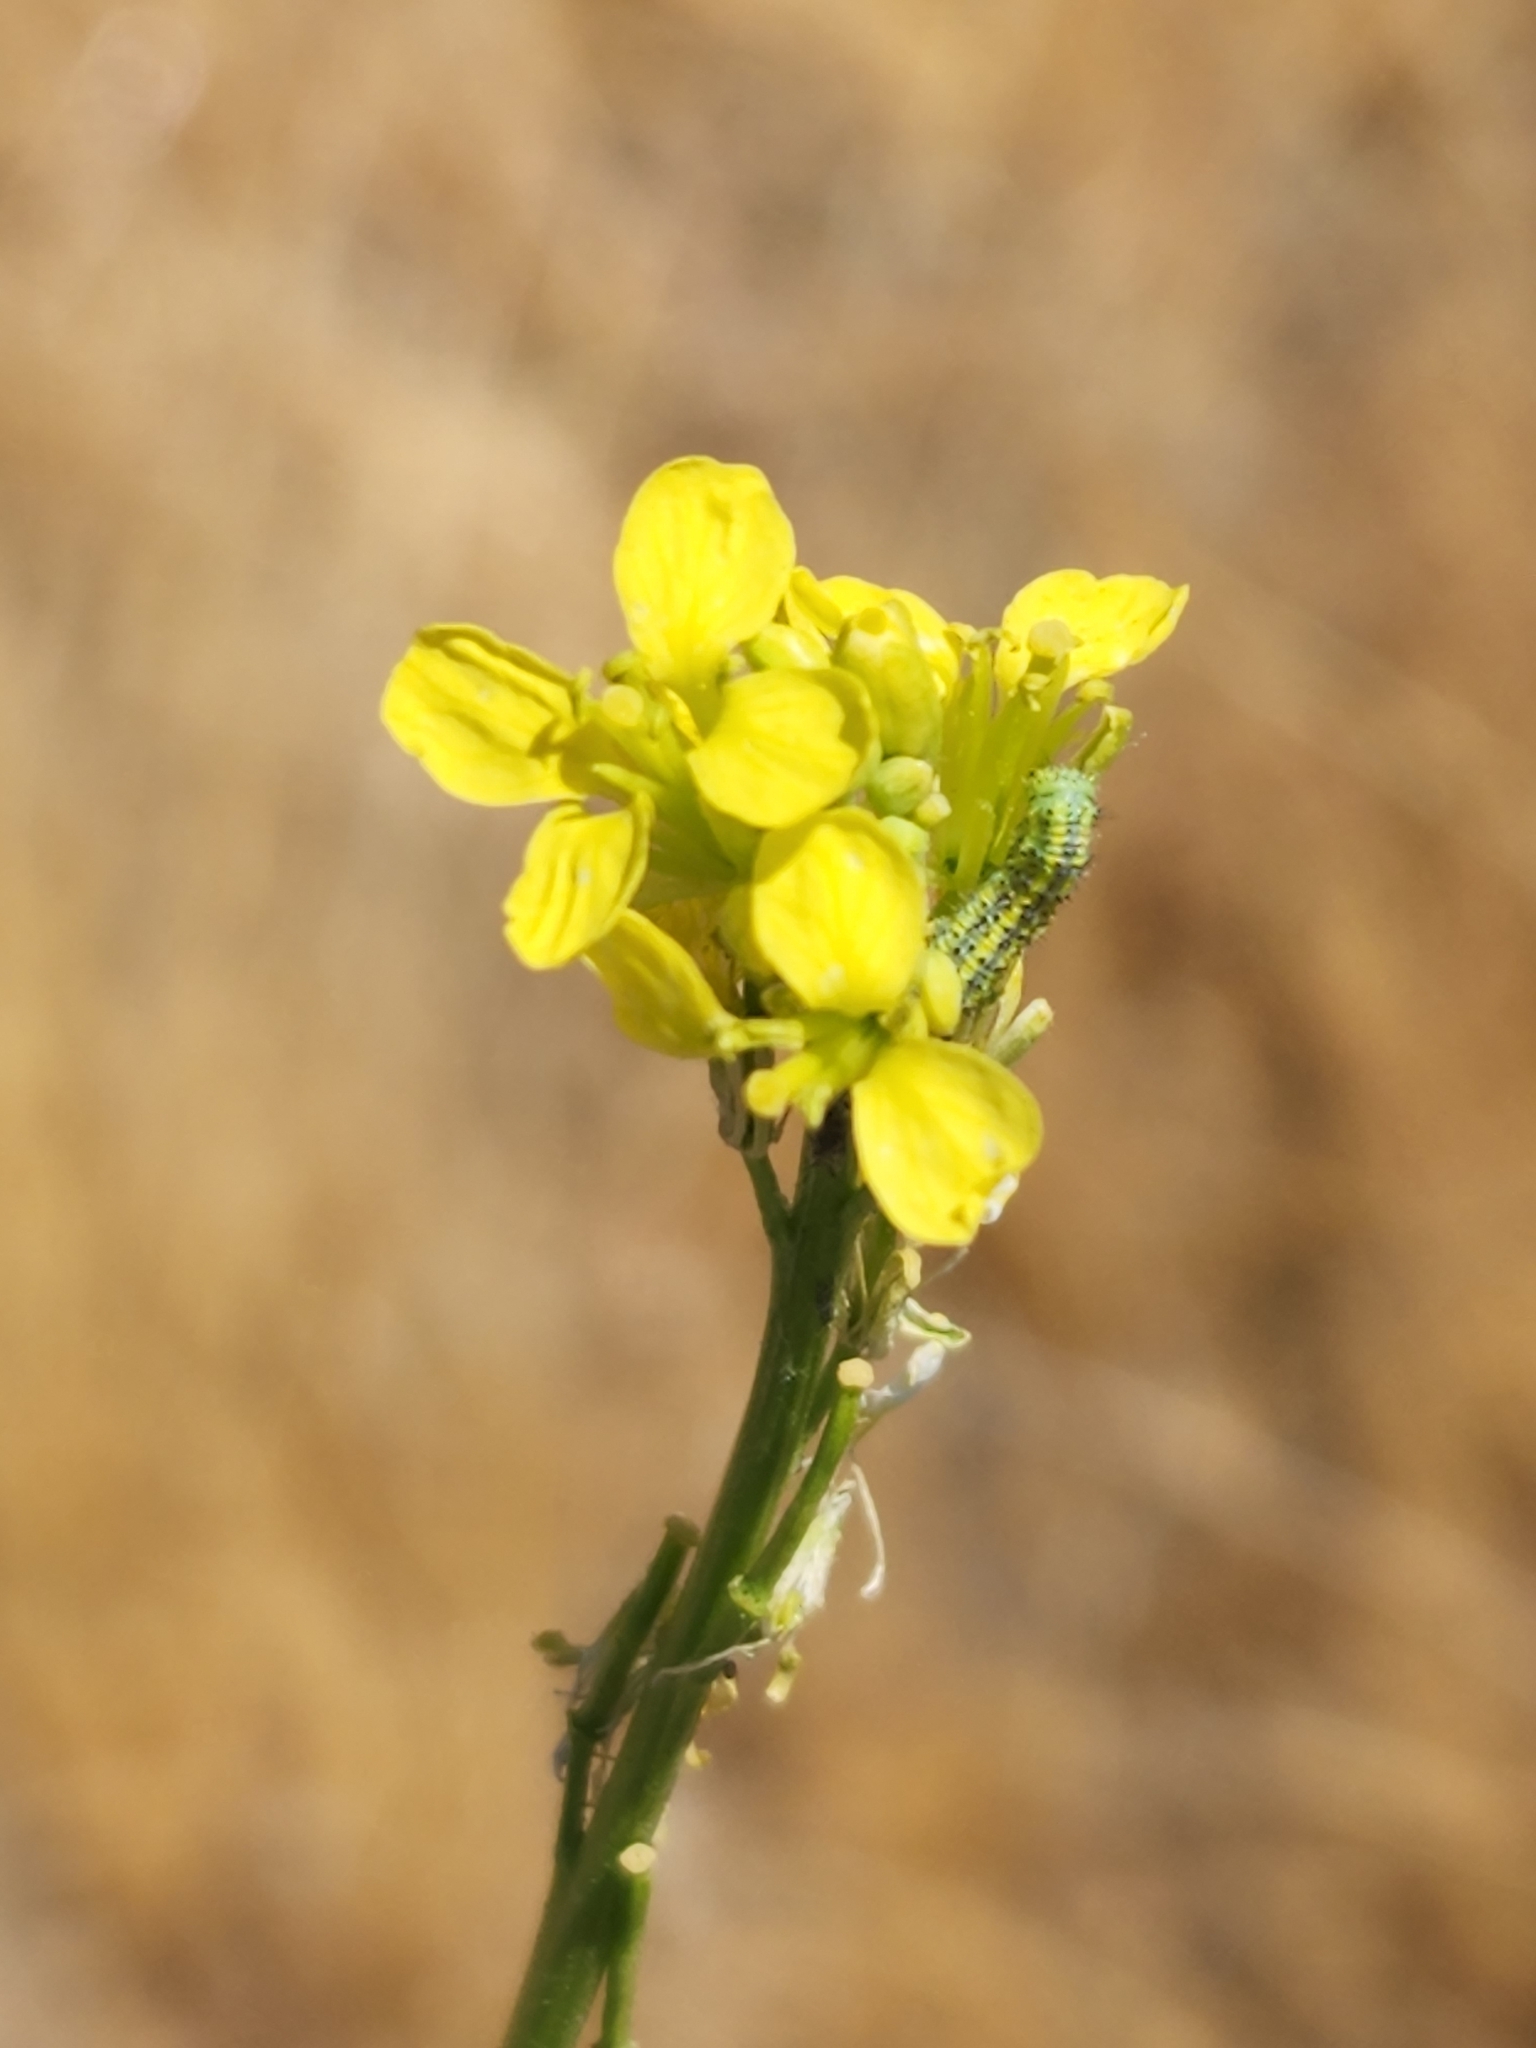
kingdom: Plantae
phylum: Tracheophyta
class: Magnoliopsida
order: Brassicales
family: Brassicaceae
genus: Hirschfeldia
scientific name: Hirschfeldia incana
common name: Hoary mustard
